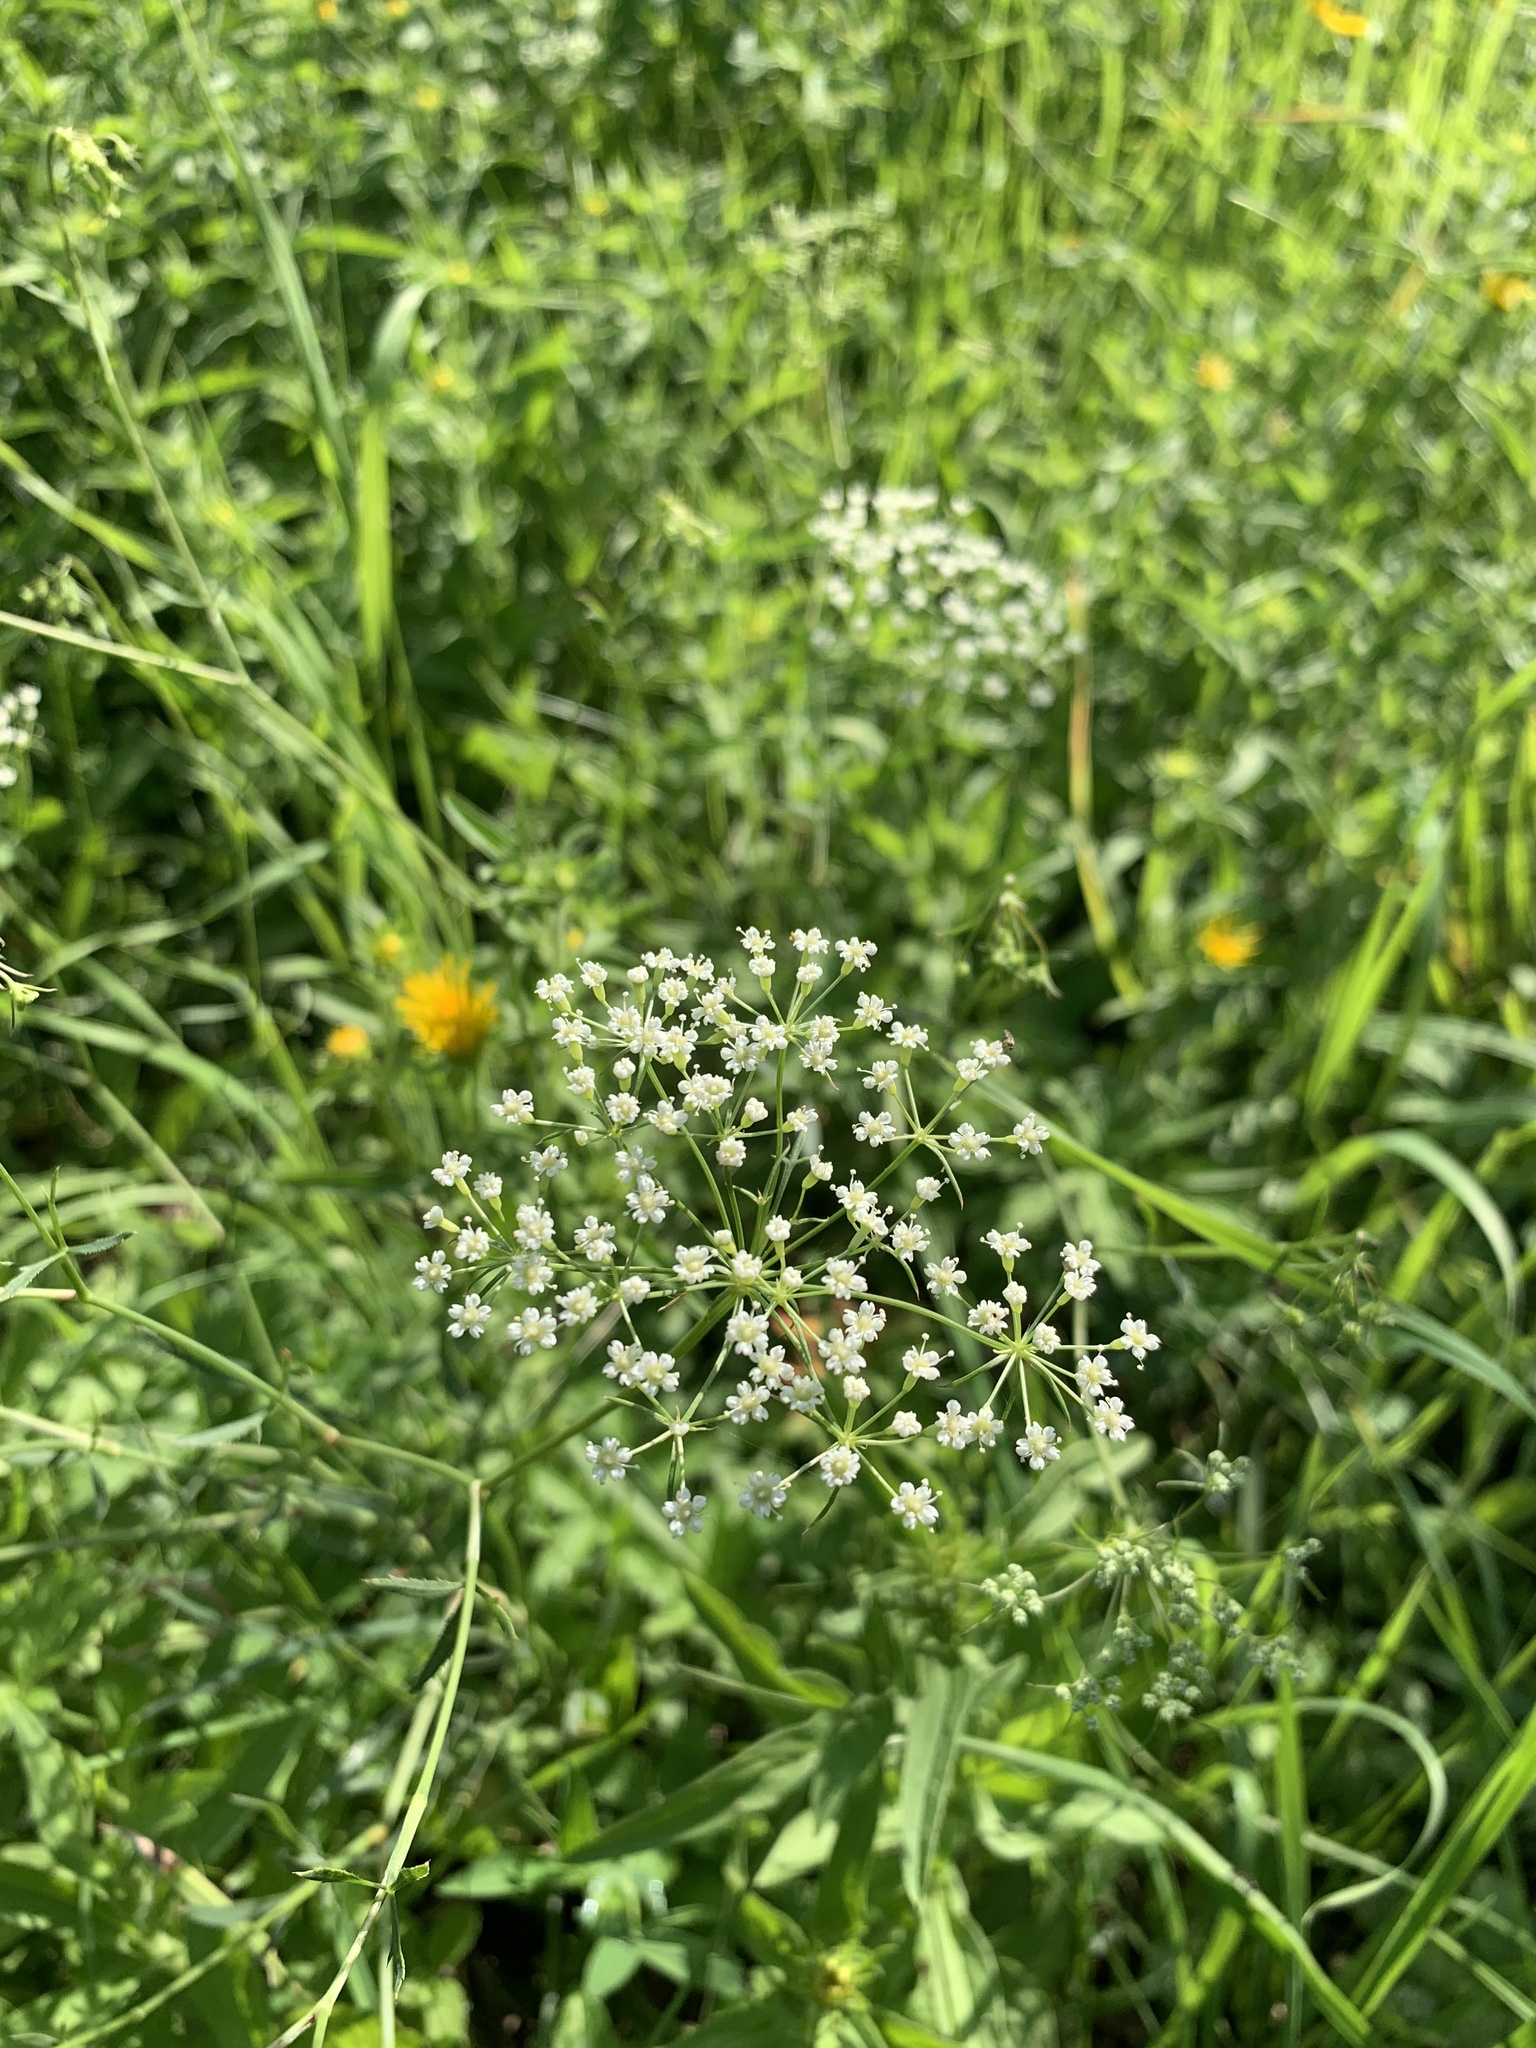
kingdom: Plantae
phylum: Tracheophyta
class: Magnoliopsida
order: Apiales
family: Apiaceae
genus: Falcaria
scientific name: Falcaria vulgaris
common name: Longleaf
